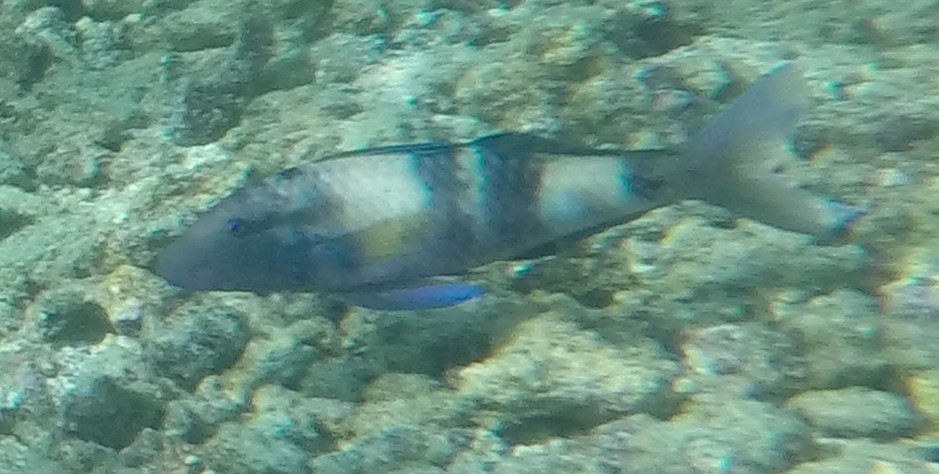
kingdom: Animalia
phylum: Chordata
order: Perciformes
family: Mullidae
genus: Parupeneus
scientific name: Parupeneus multifasciatus
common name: Manybar goatfish
